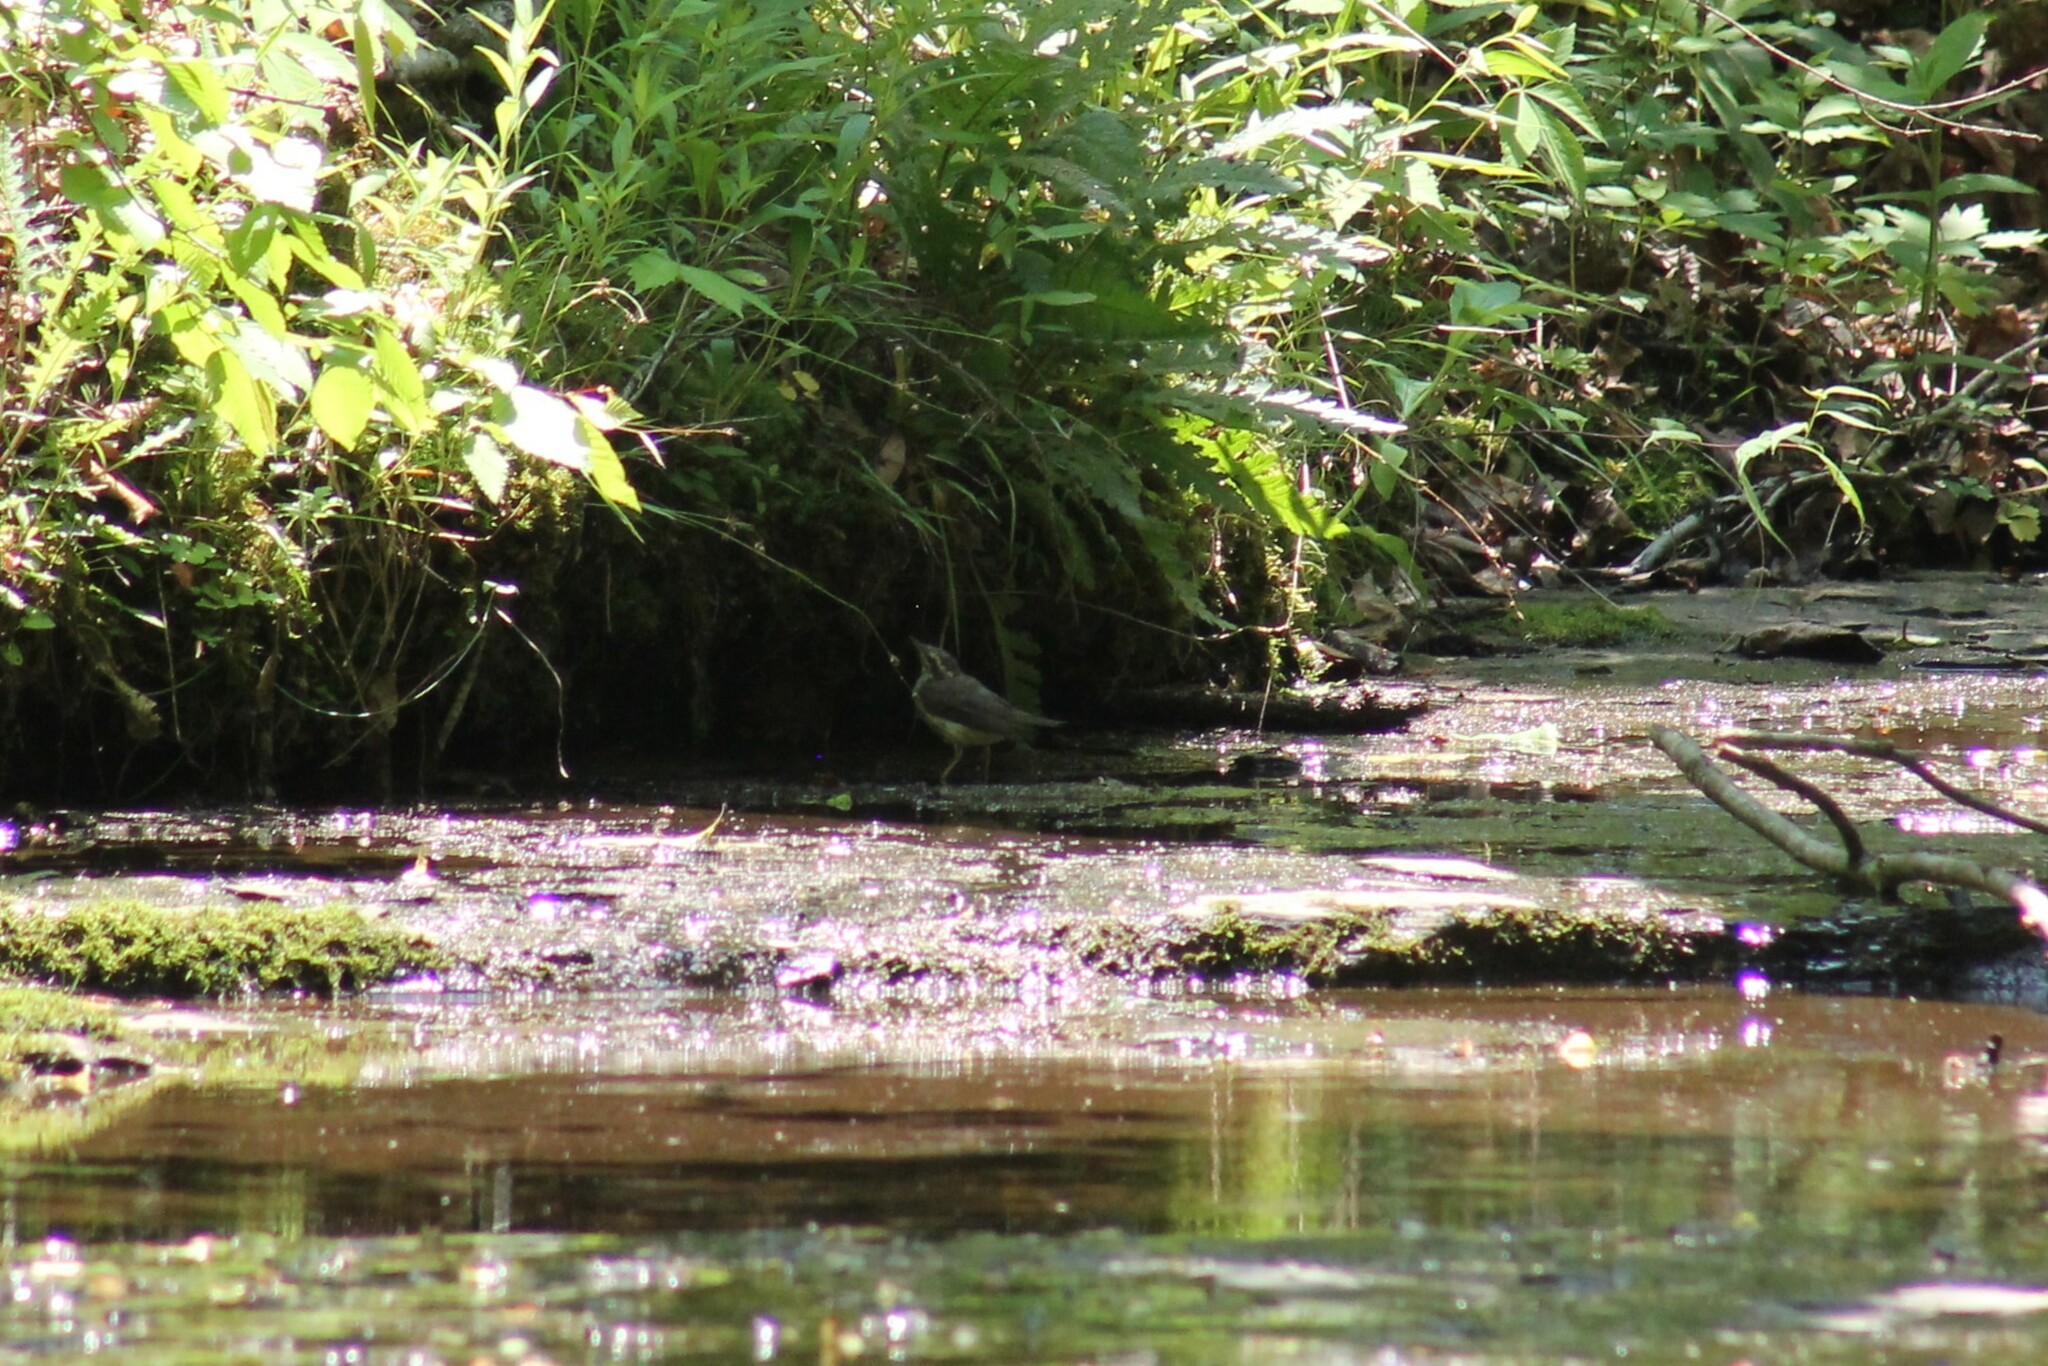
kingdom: Animalia
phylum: Chordata
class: Aves
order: Passeriformes
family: Parulidae
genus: Parkesia
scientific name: Parkesia motacilla
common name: Louisiana waterthrush
